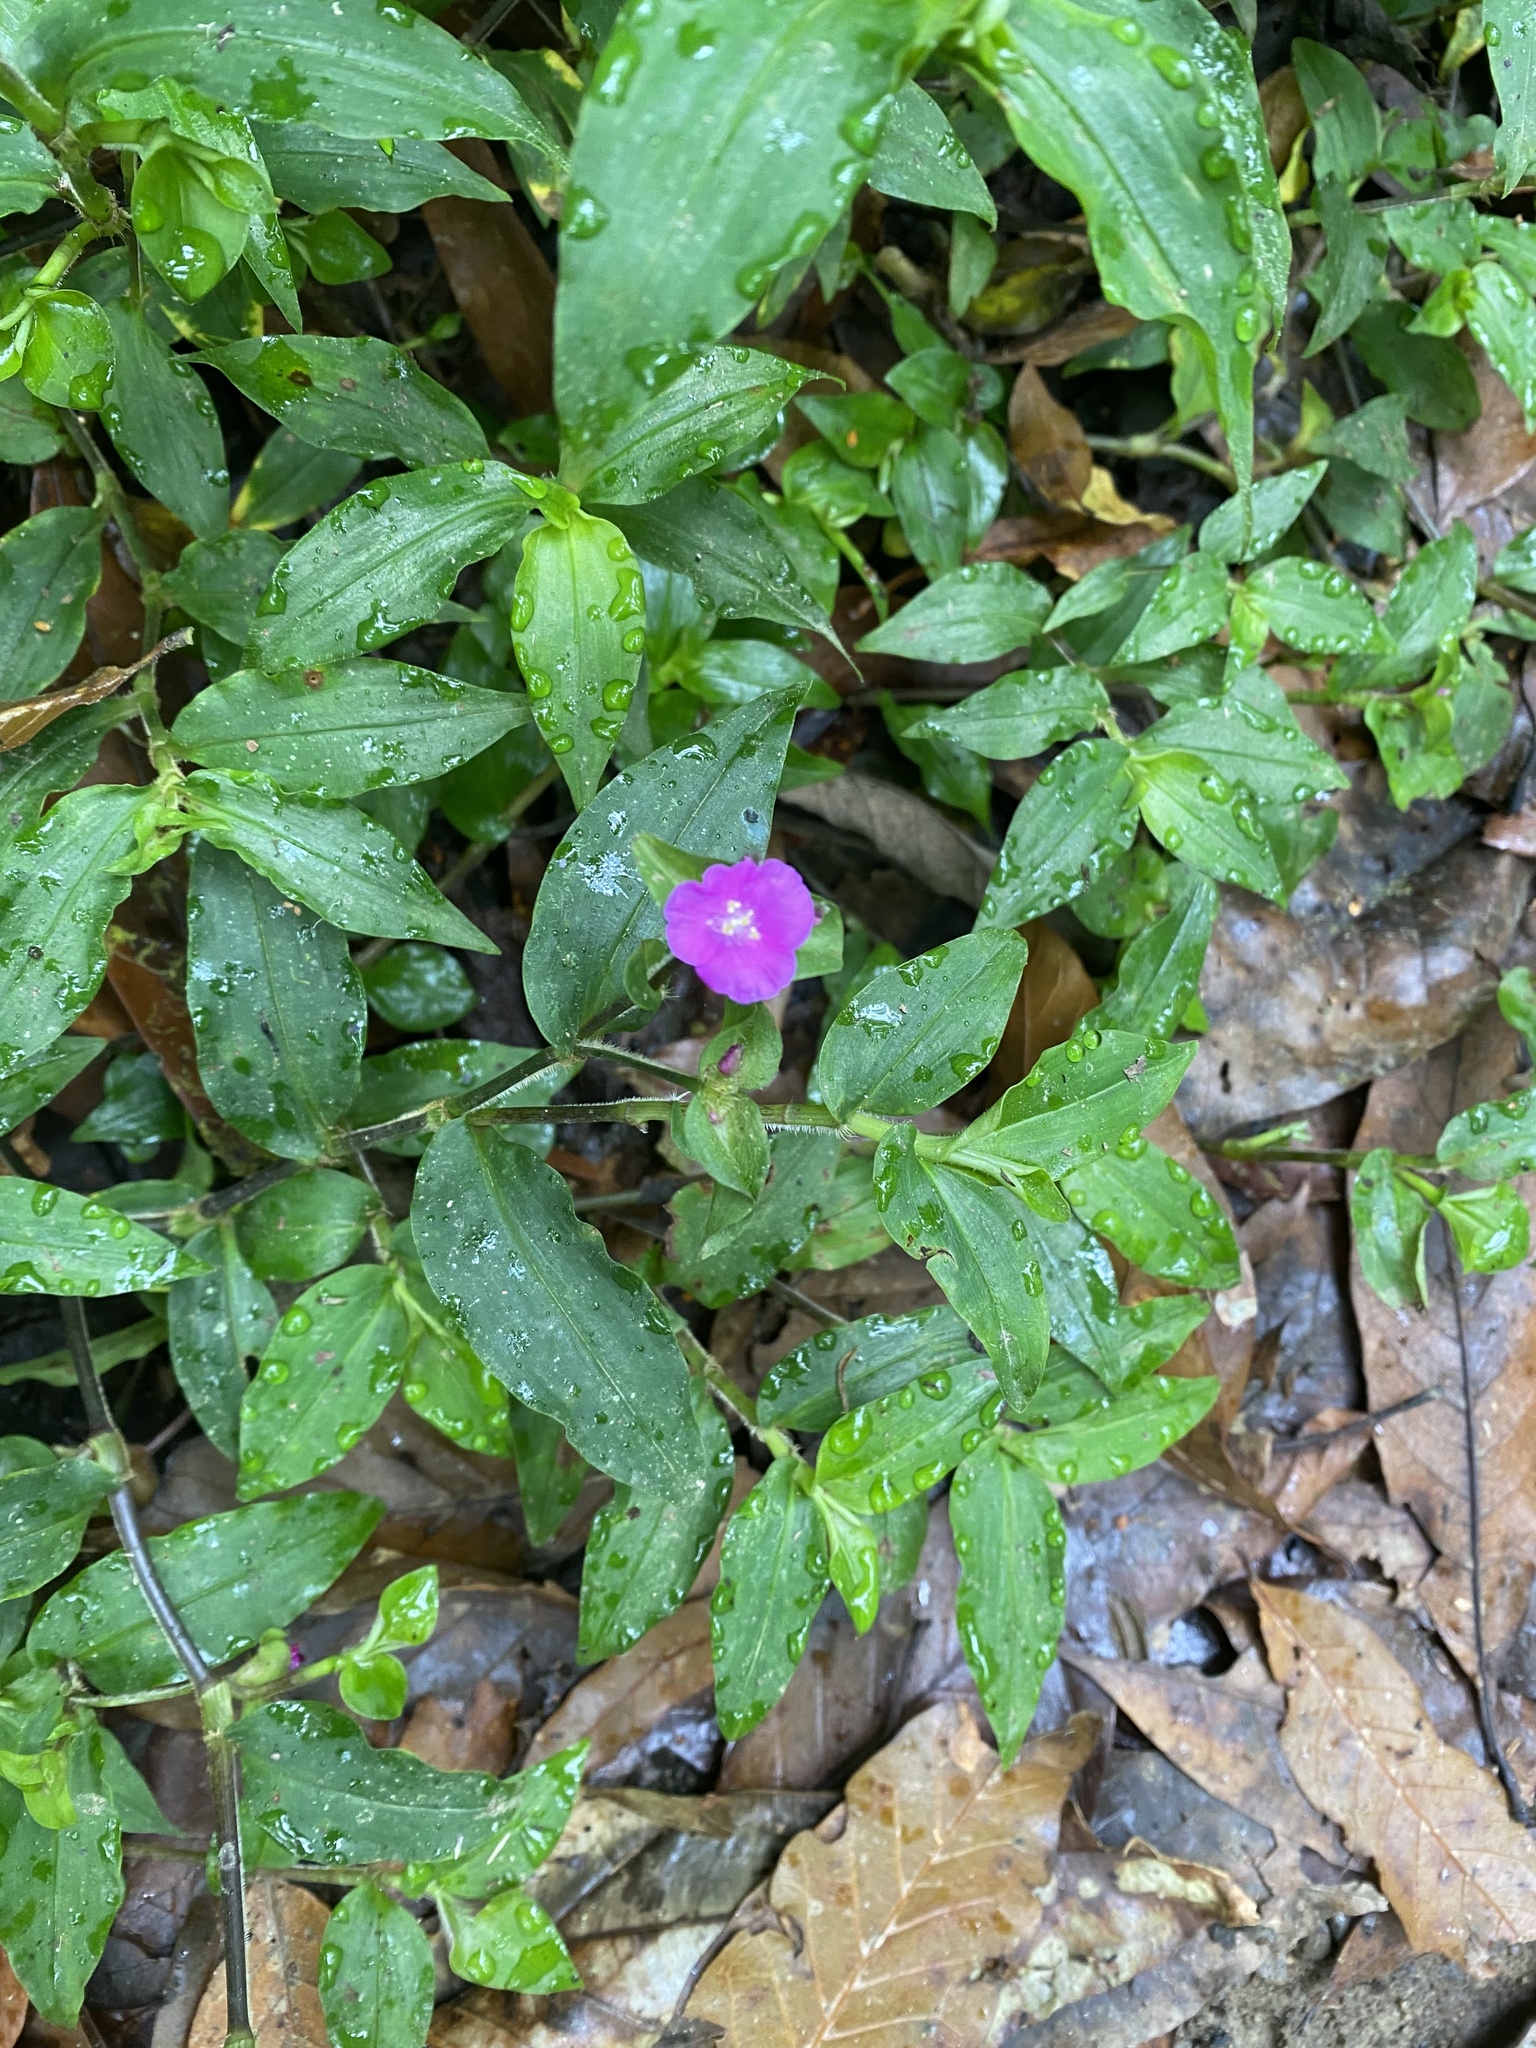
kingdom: Plantae
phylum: Tracheophyta
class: Liliopsida
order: Commelinales
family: Commelinaceae
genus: Tradescantia
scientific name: Tradescantia poelliae
